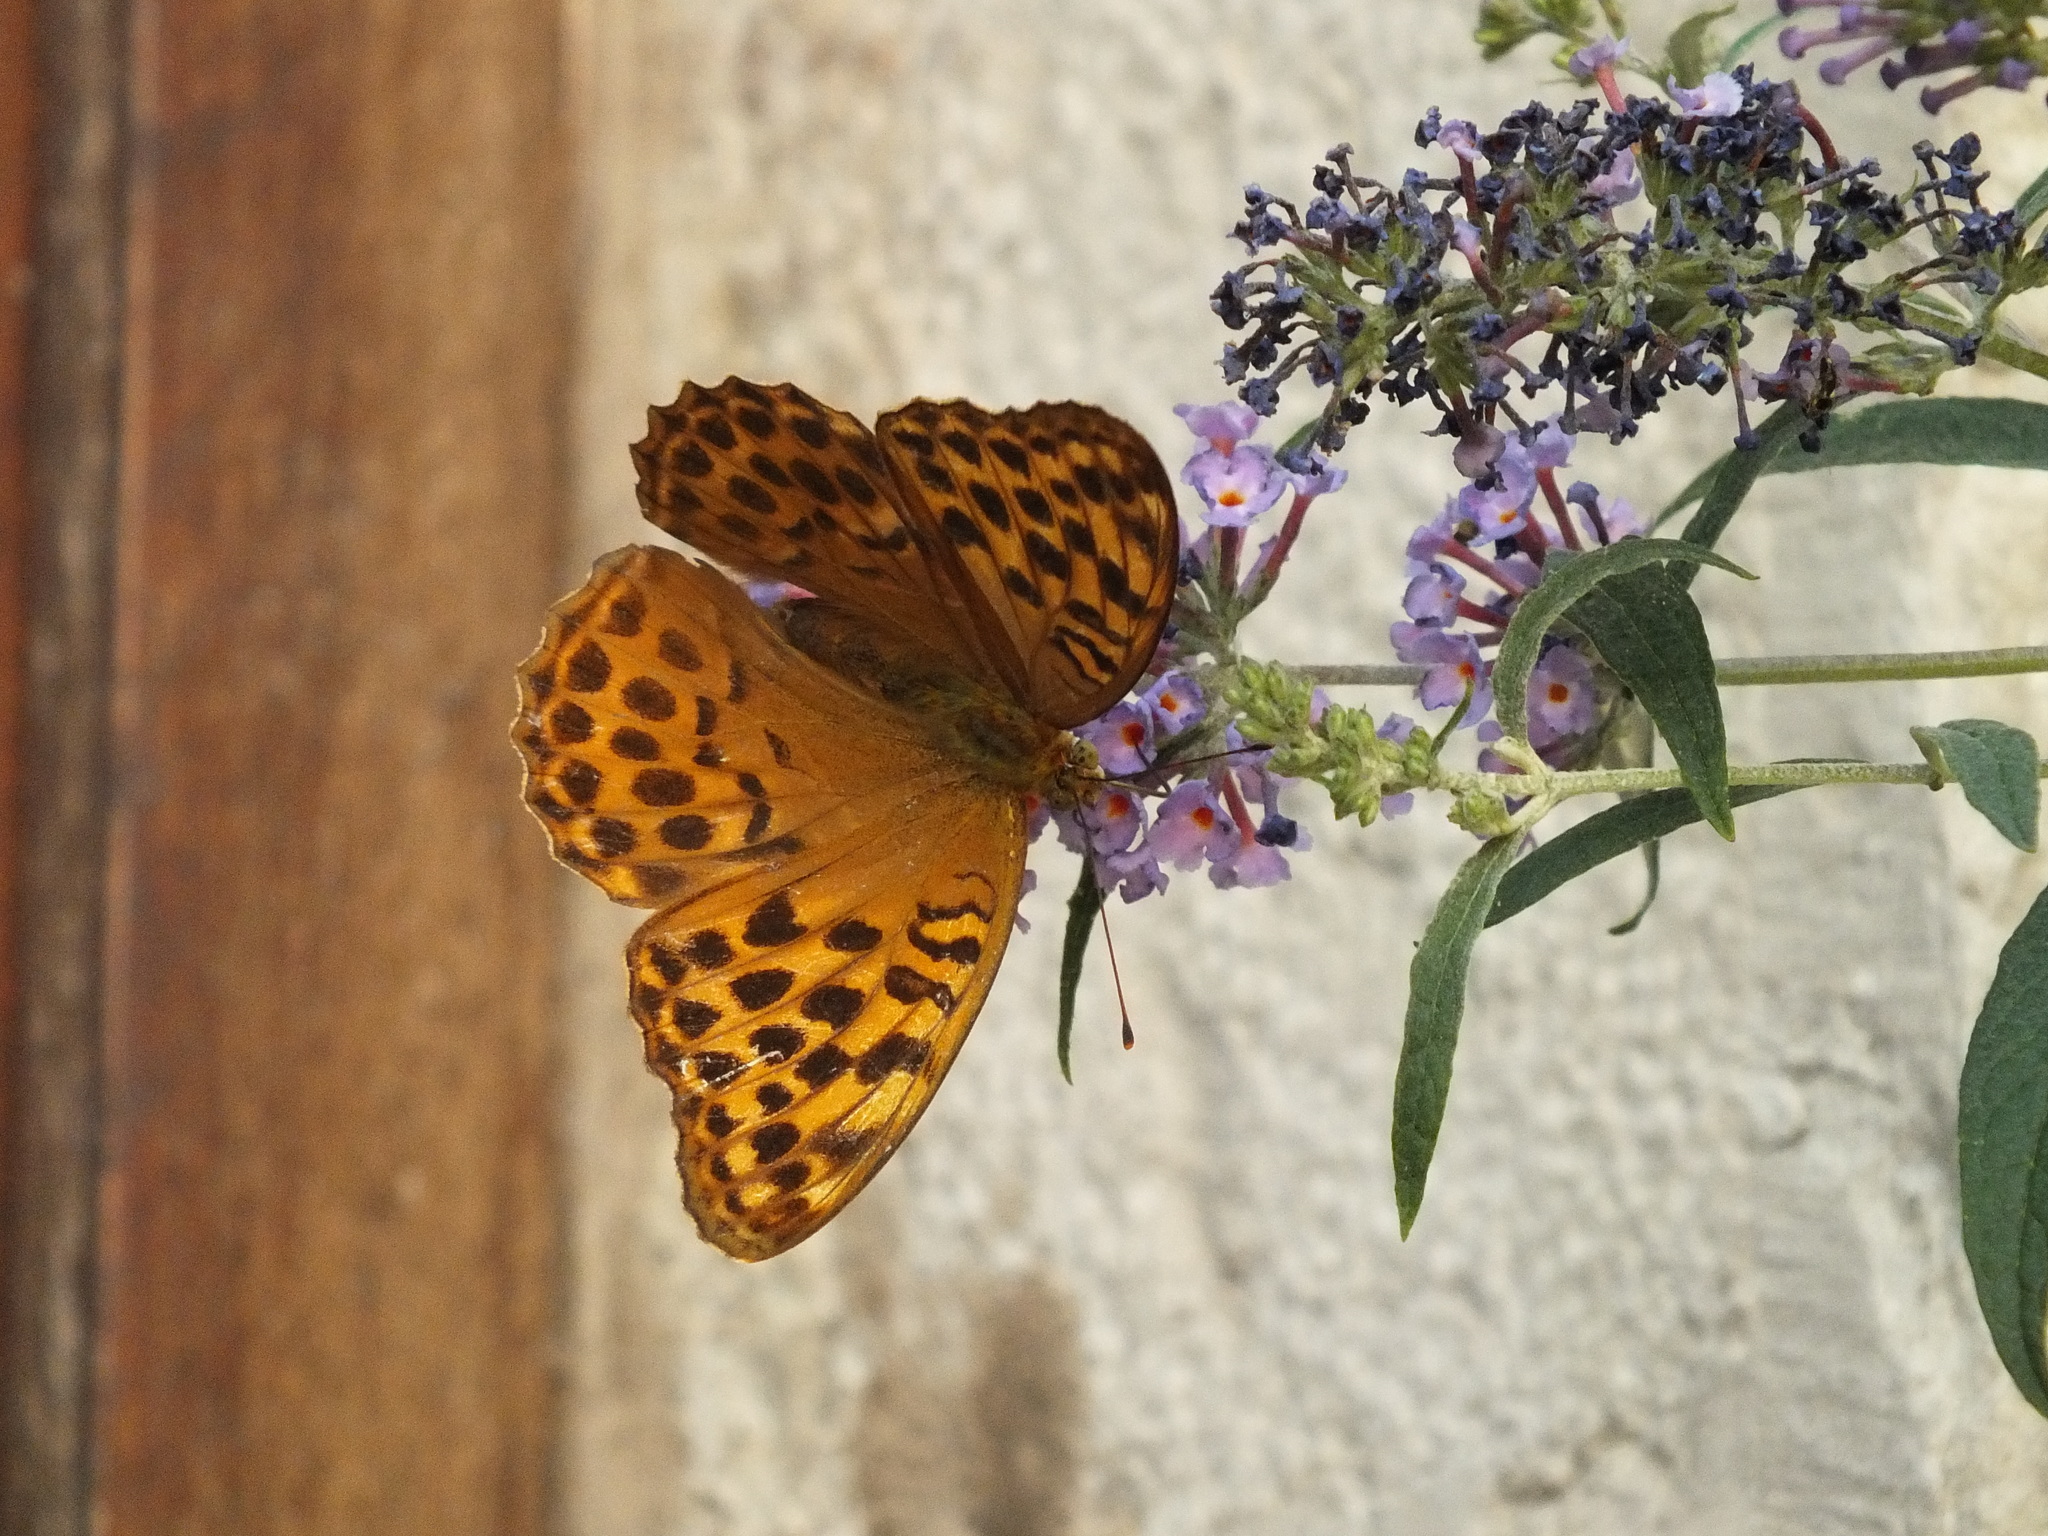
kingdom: Animalia
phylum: Arthropoda
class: Insecta
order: Lepidoptera
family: Nymphalidae
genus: Argynnis
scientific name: Argynnis paphia
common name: Silver-washed fritillary
